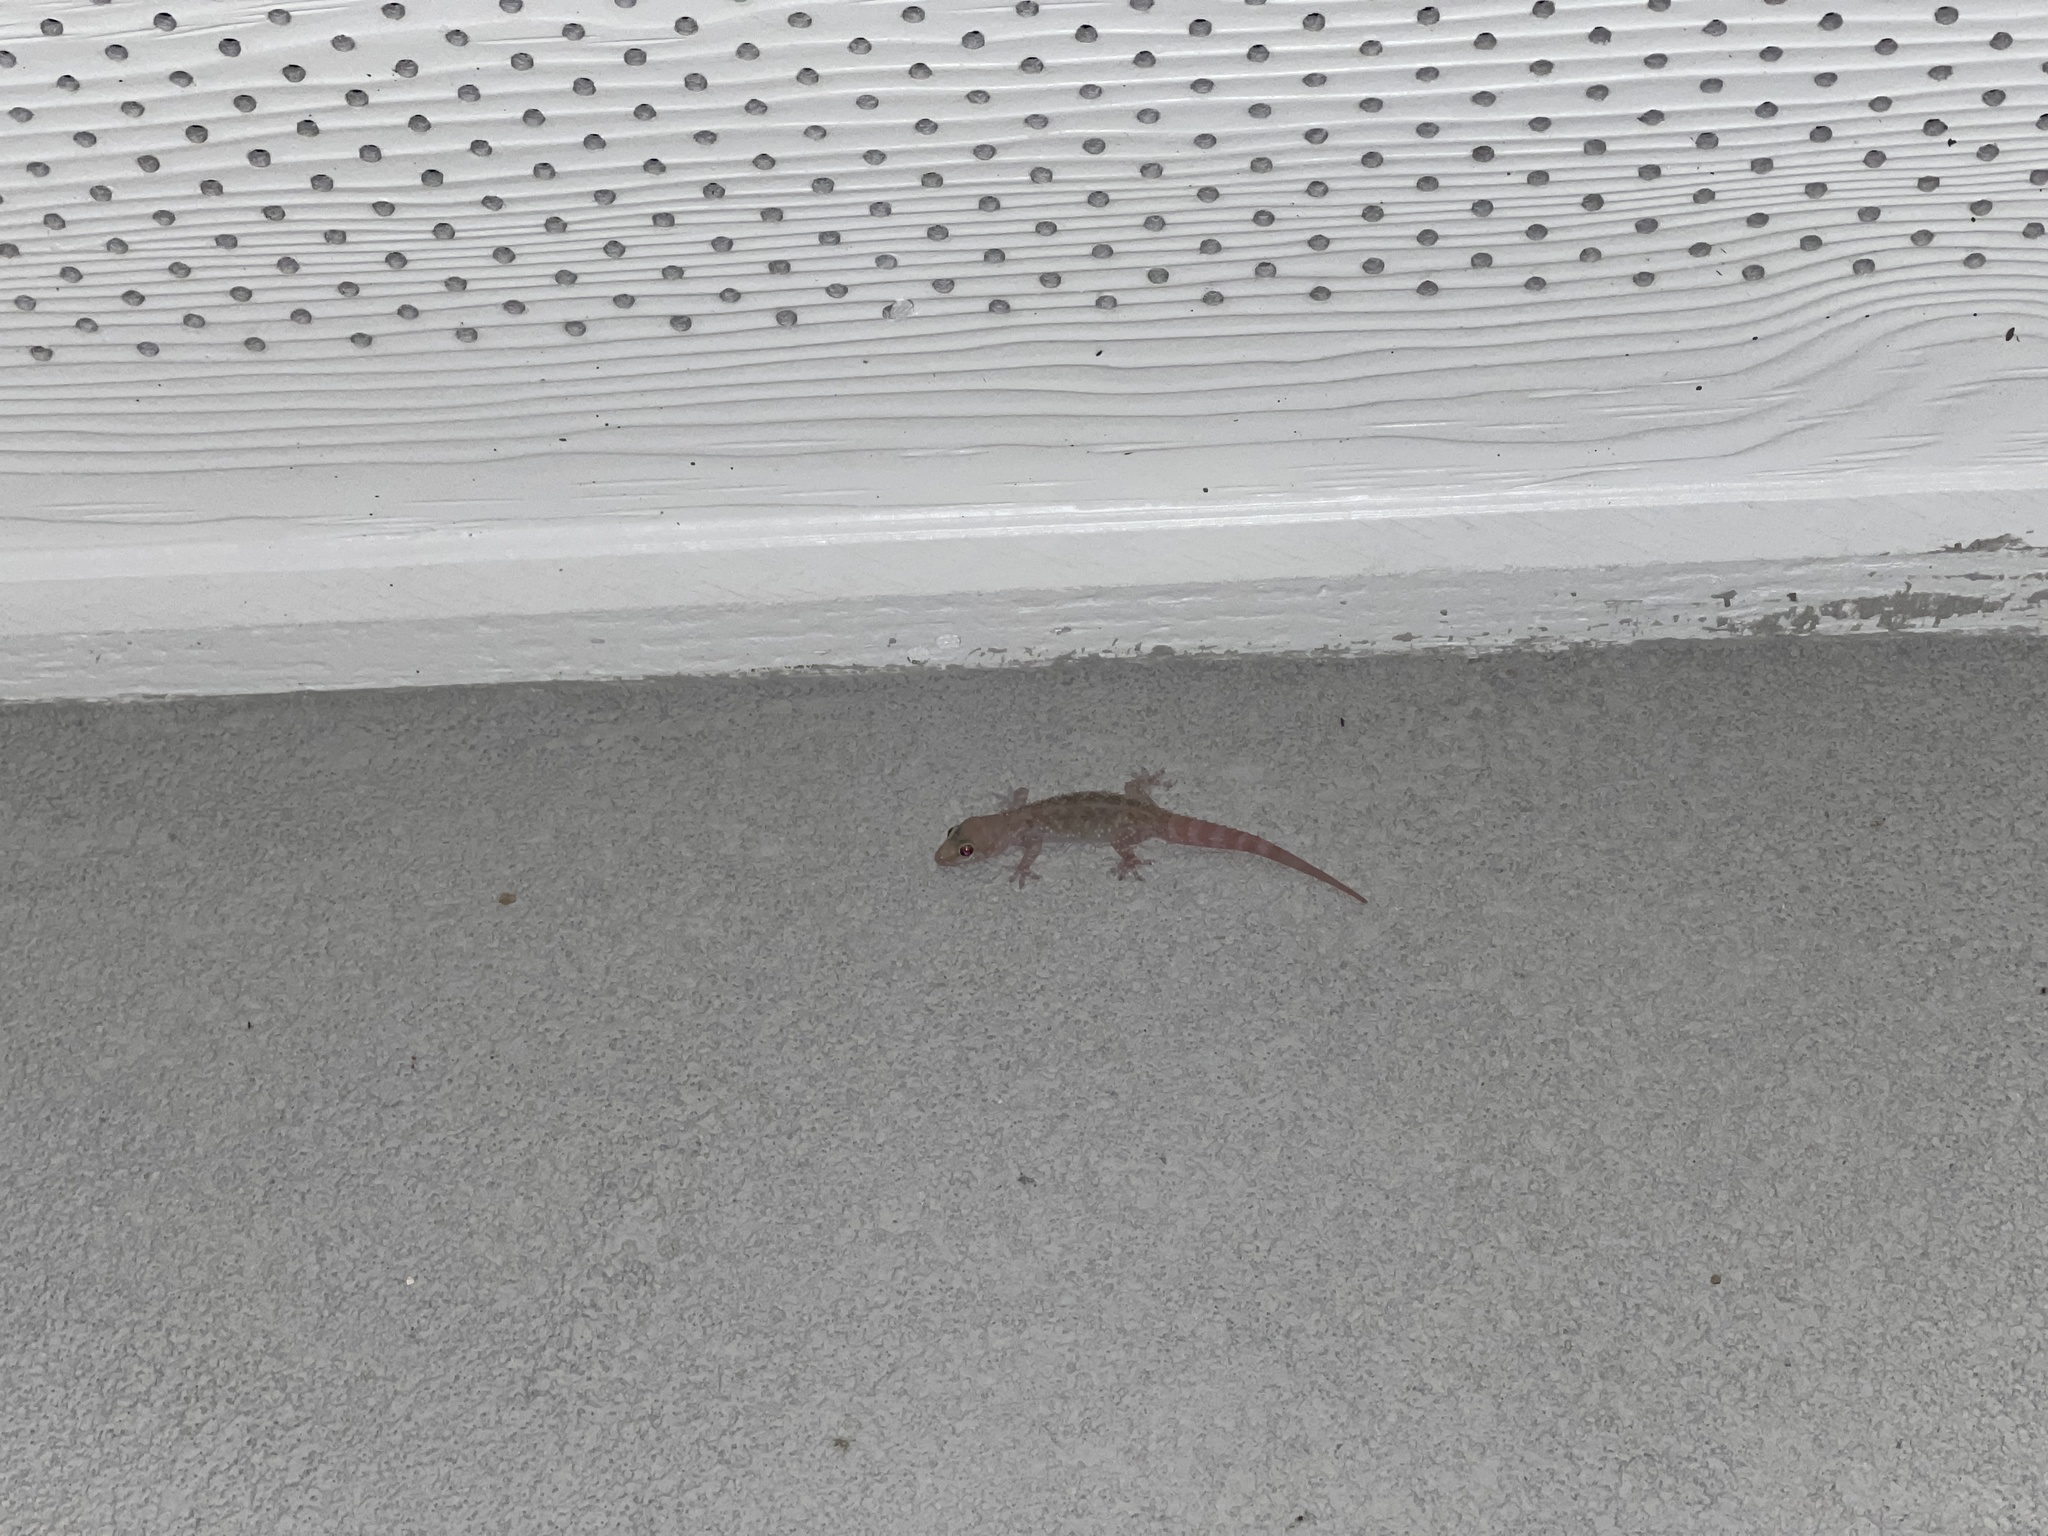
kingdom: Animalia
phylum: Chordata
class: Squamata
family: Gekkonidae
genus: Hemidactylus
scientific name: Hemidactylus turcicus
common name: Turkish gecko
